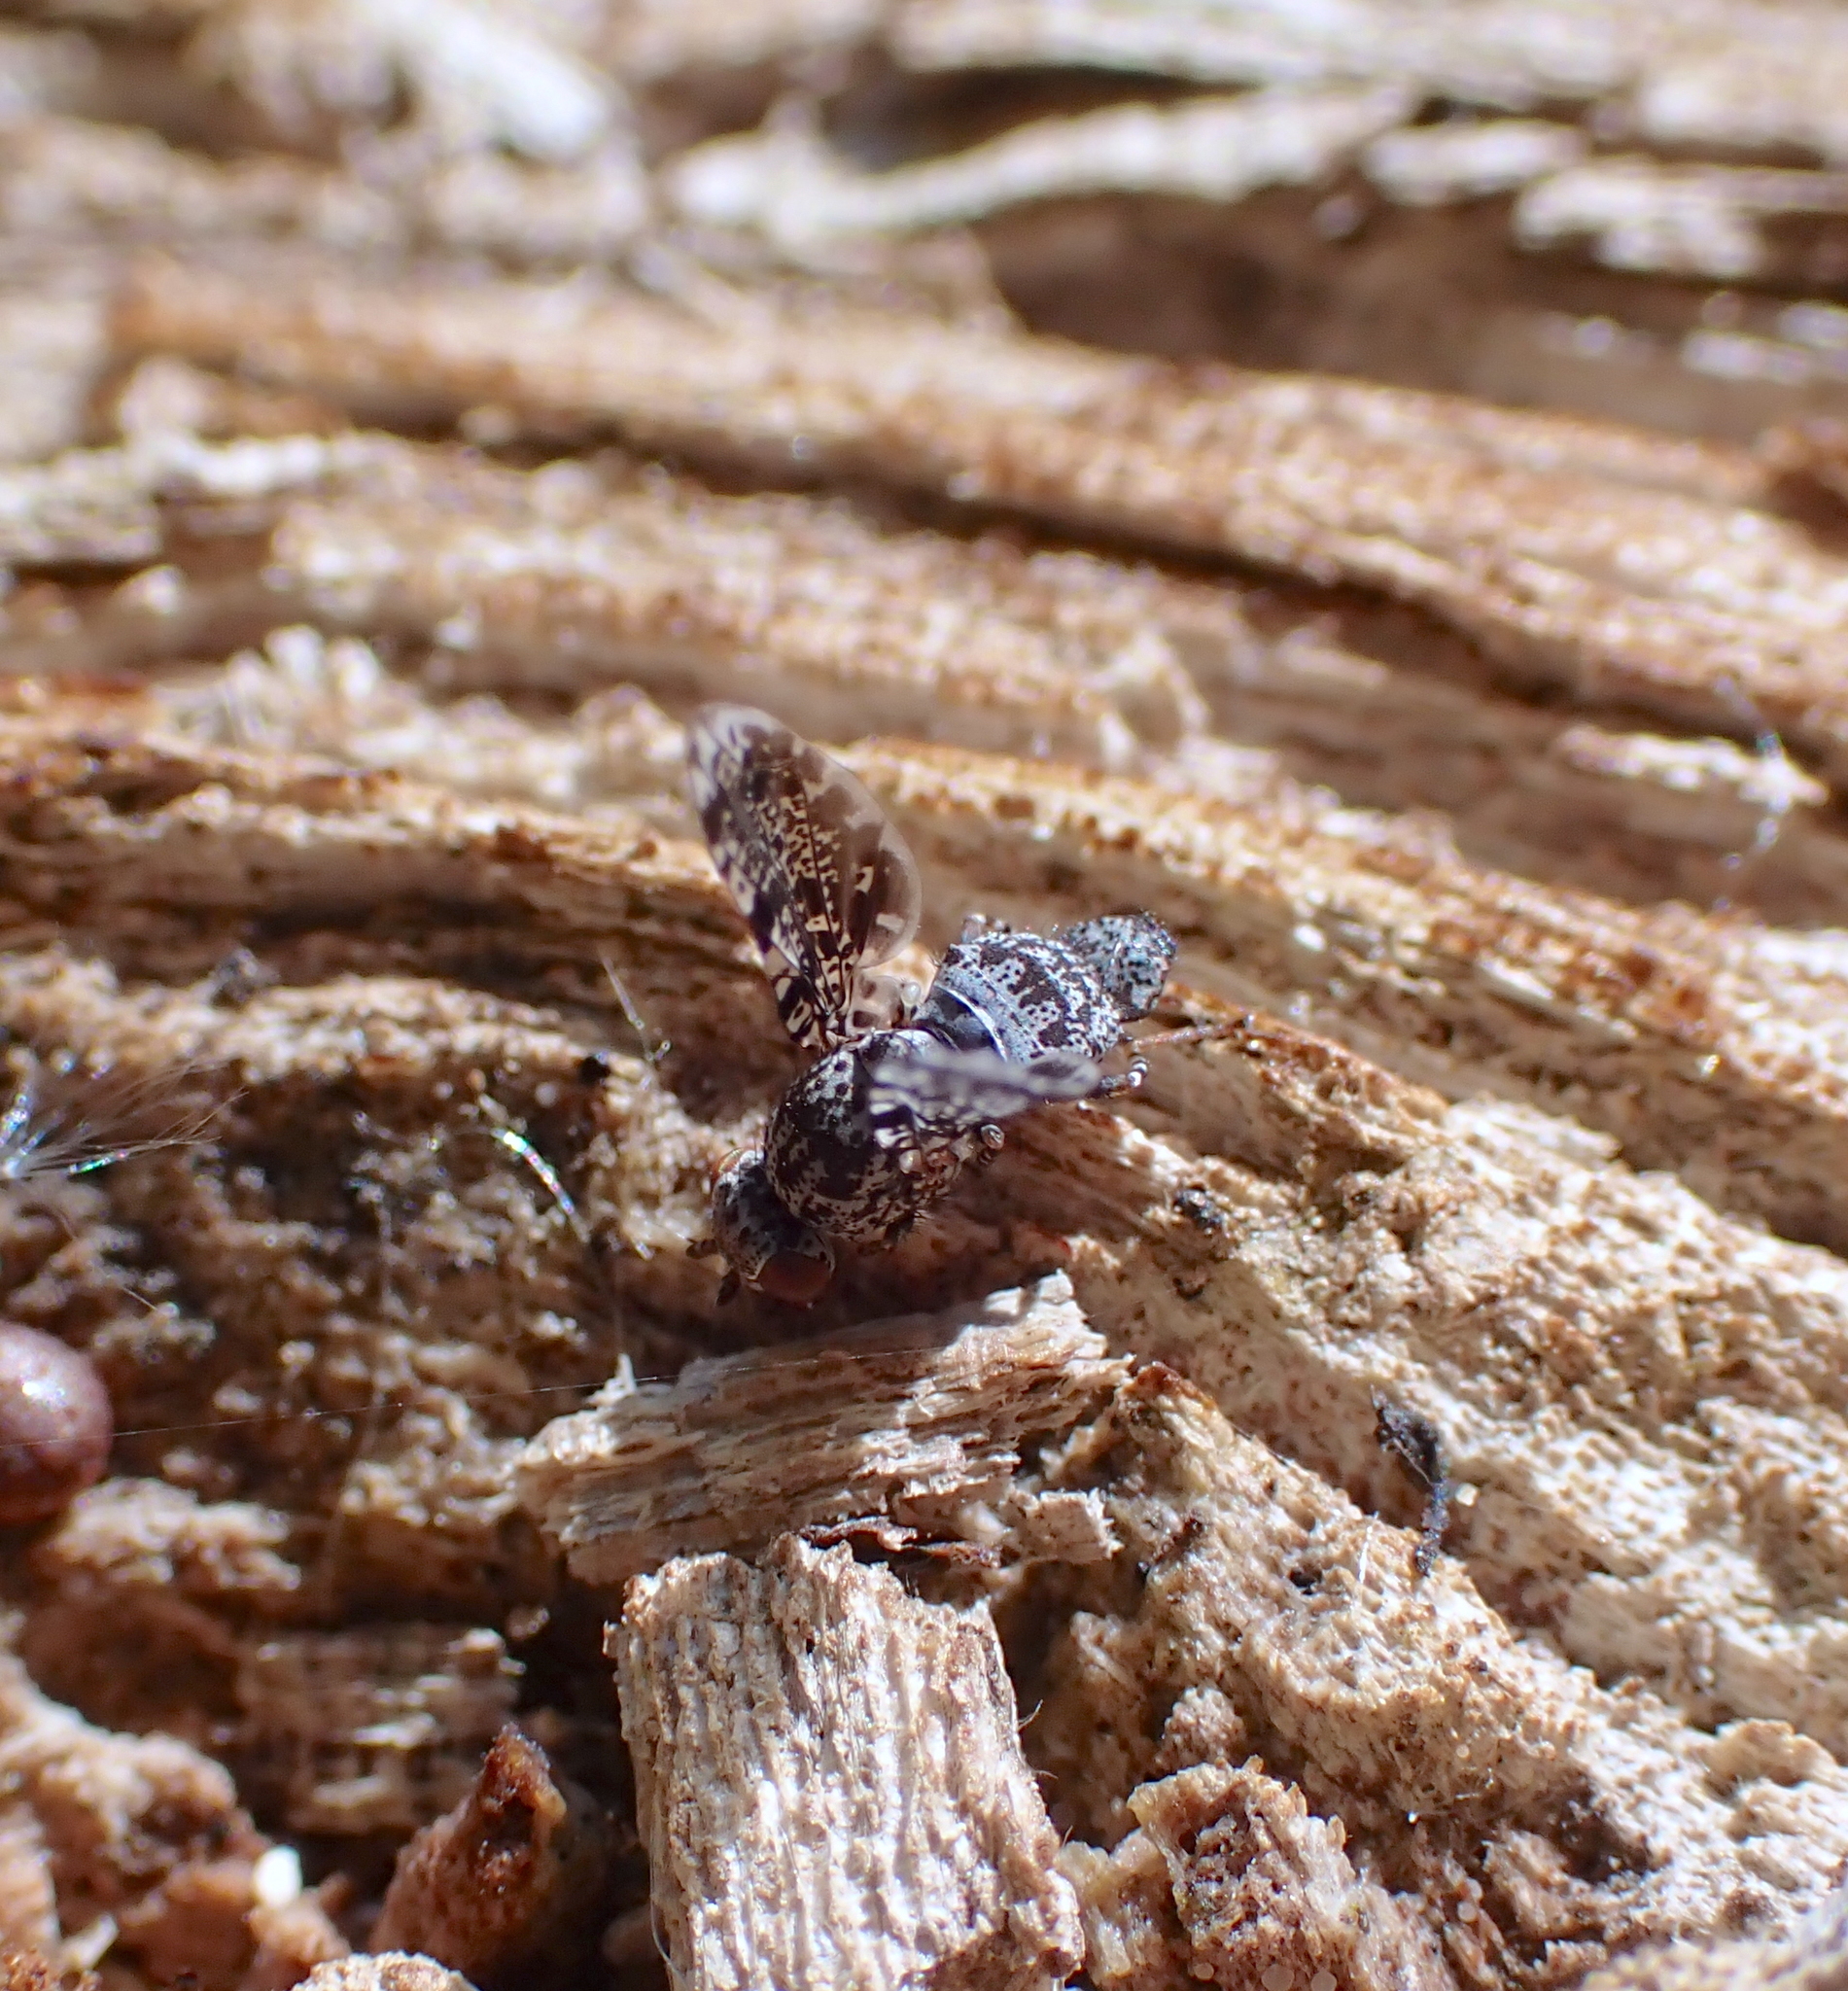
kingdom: Animalia
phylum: Arthropoda
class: Insecta
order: Diptera
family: Ulidiidae
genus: Callopistromyia
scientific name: Callopistromyia annulipes
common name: Peacock fly
